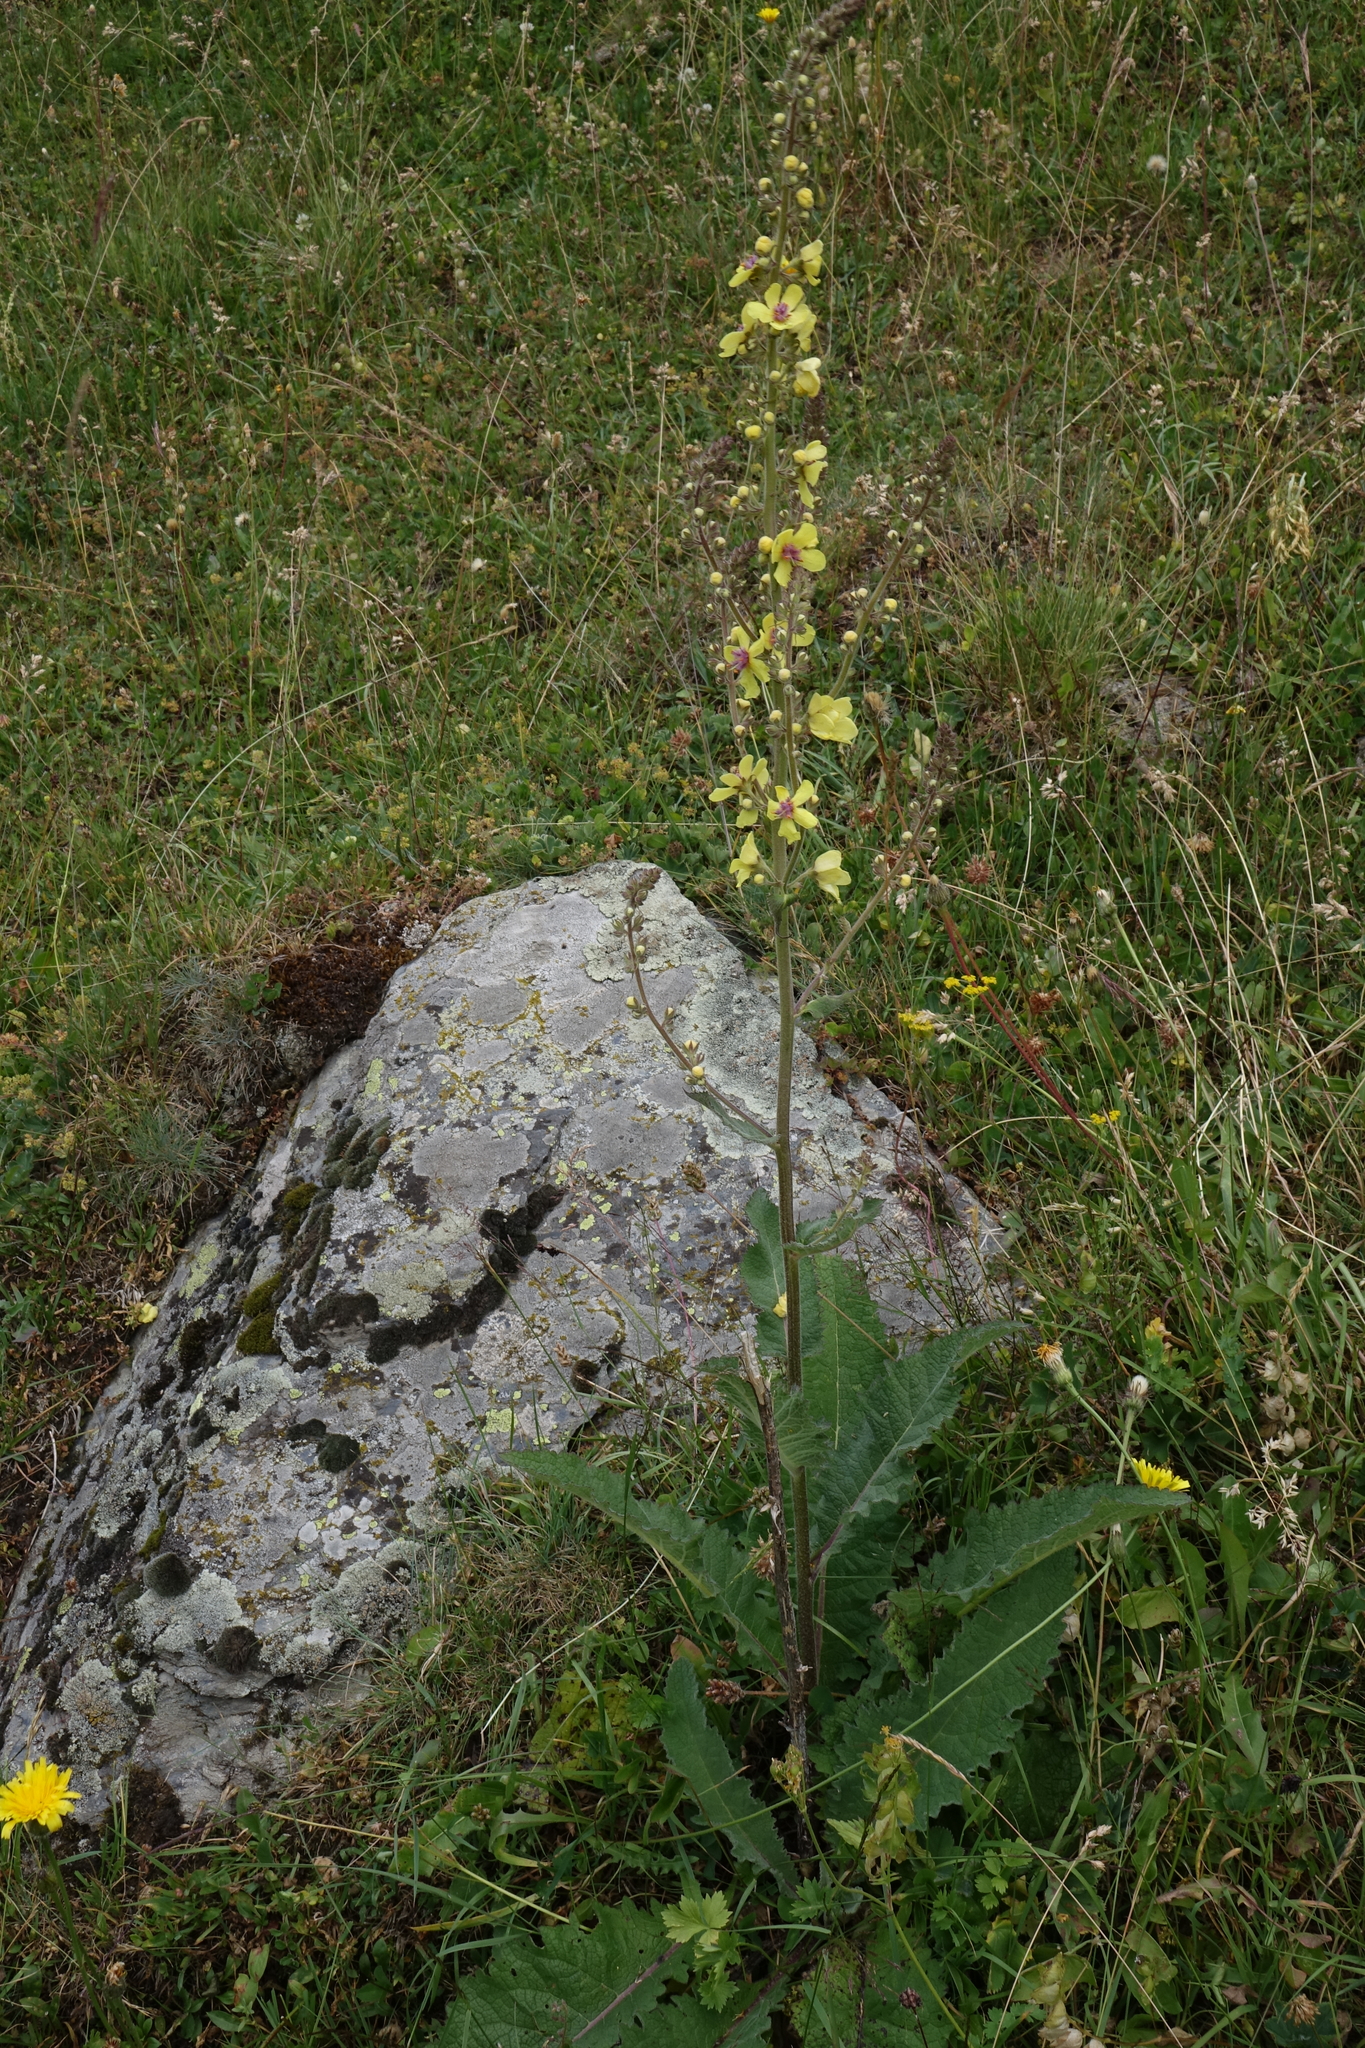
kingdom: Plantae
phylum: Tracheophyta
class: Magnoliopsida
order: Lamiales
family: Scrophulariaceae
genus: Verbascum
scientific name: Verbascum pyramidatum
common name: Caucasian mullein
